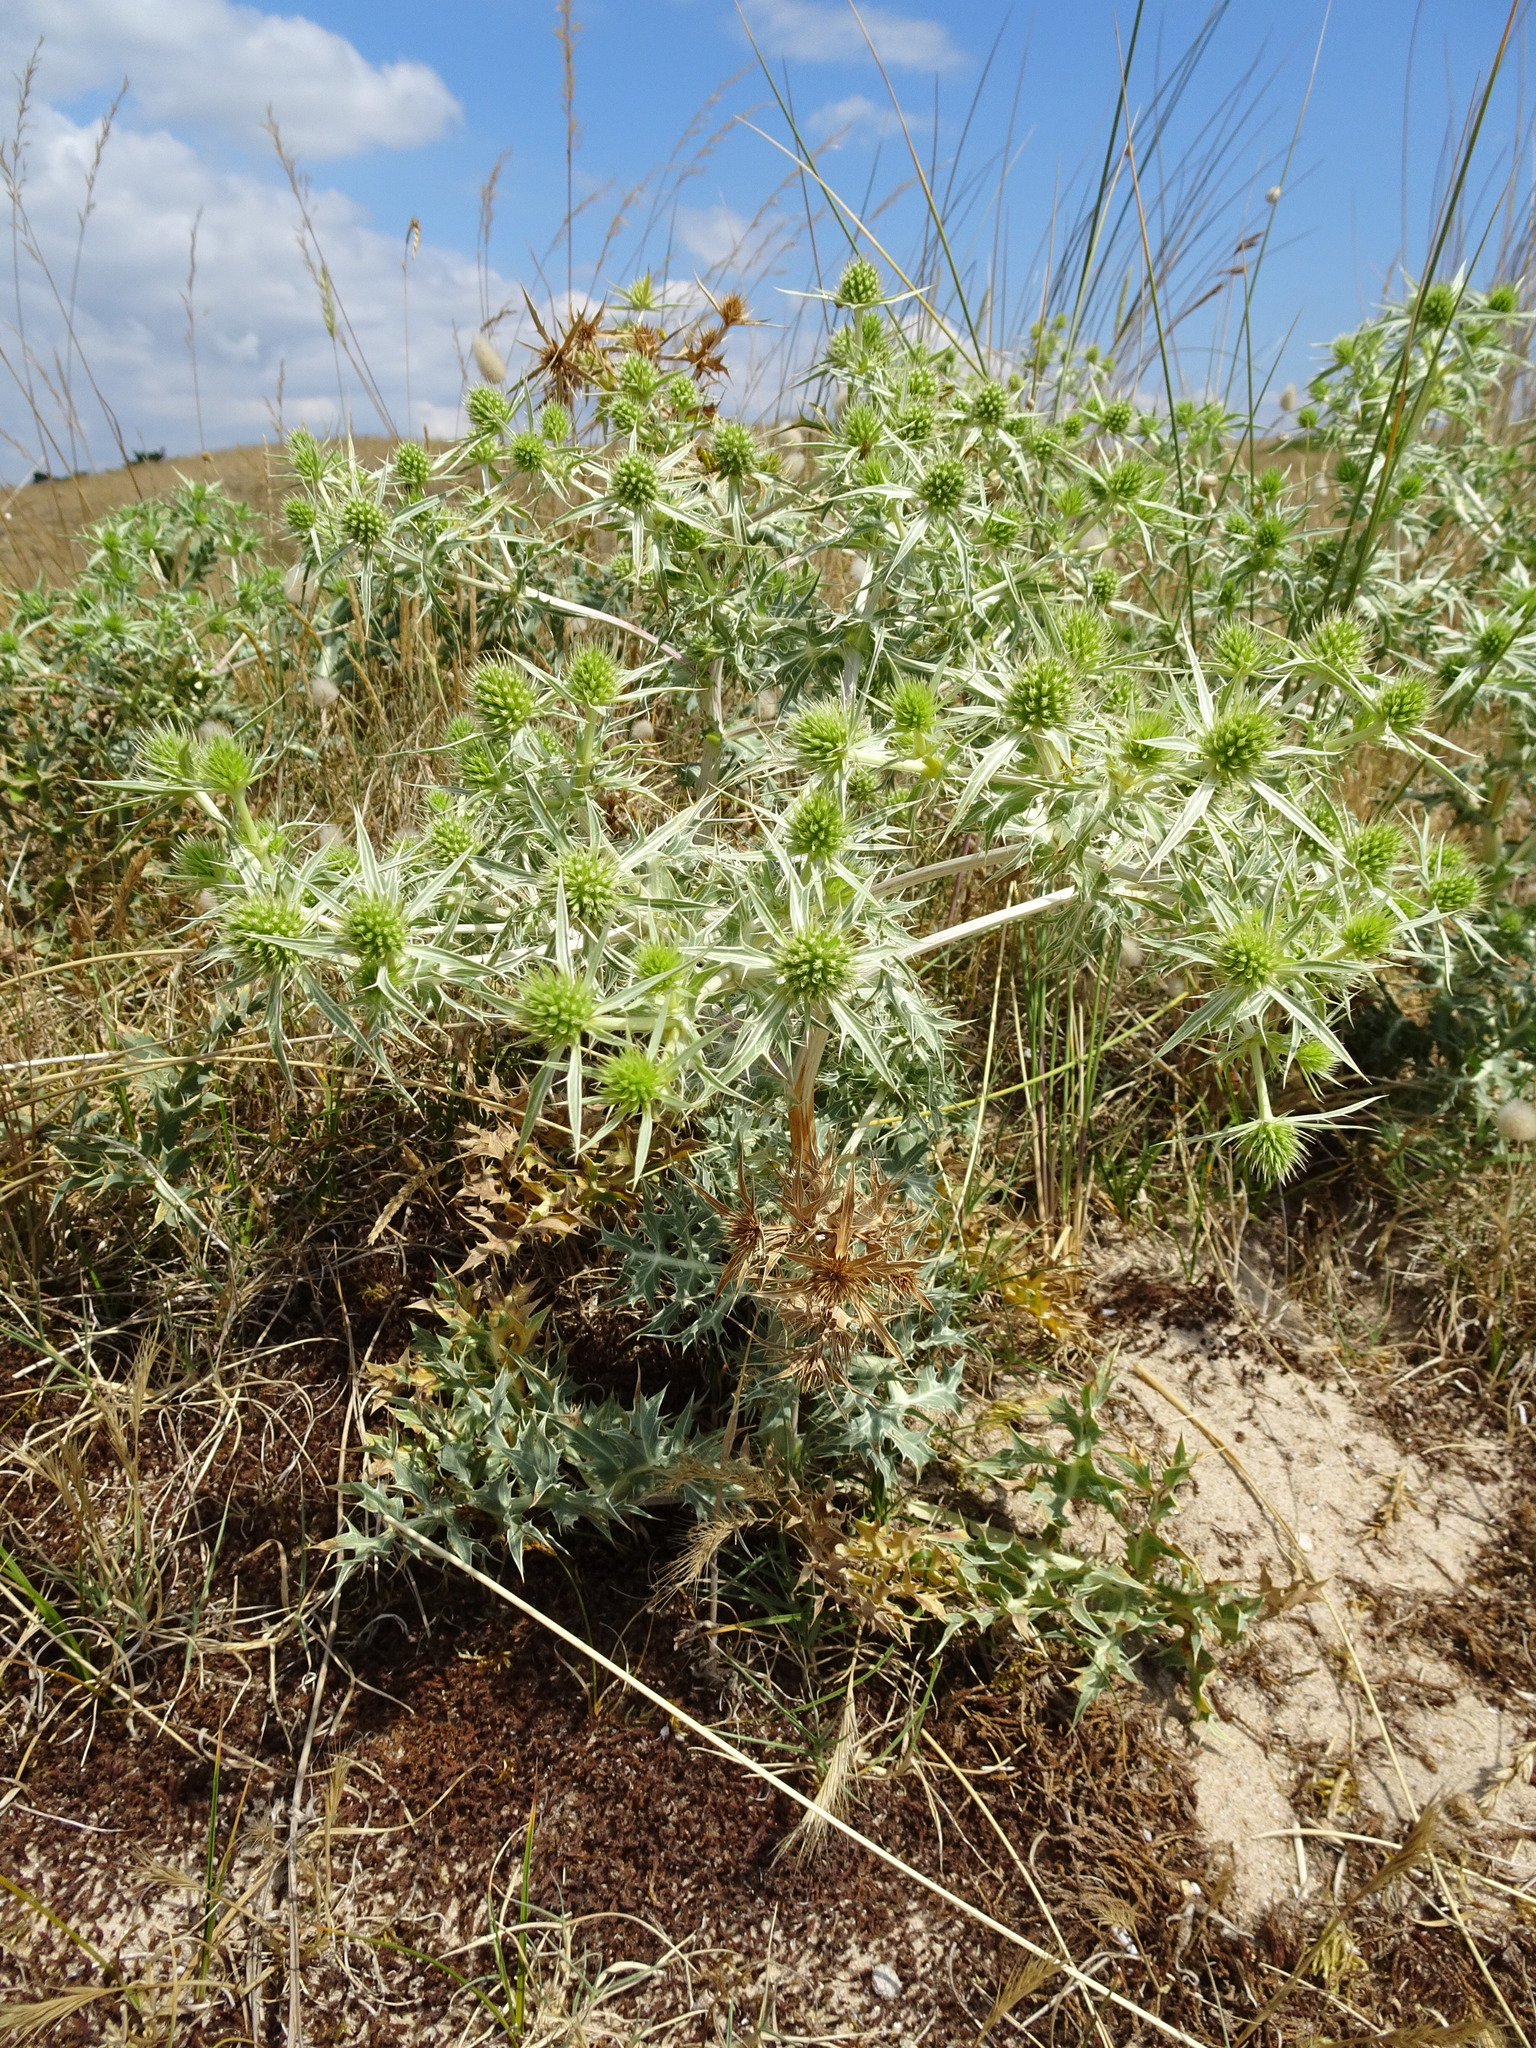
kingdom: Plantae
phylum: Tracheophyta
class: Magnoliopsida
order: Apiales
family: Apiaceae
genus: Eryngium
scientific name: Eryngium campestre
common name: Field eryngo
